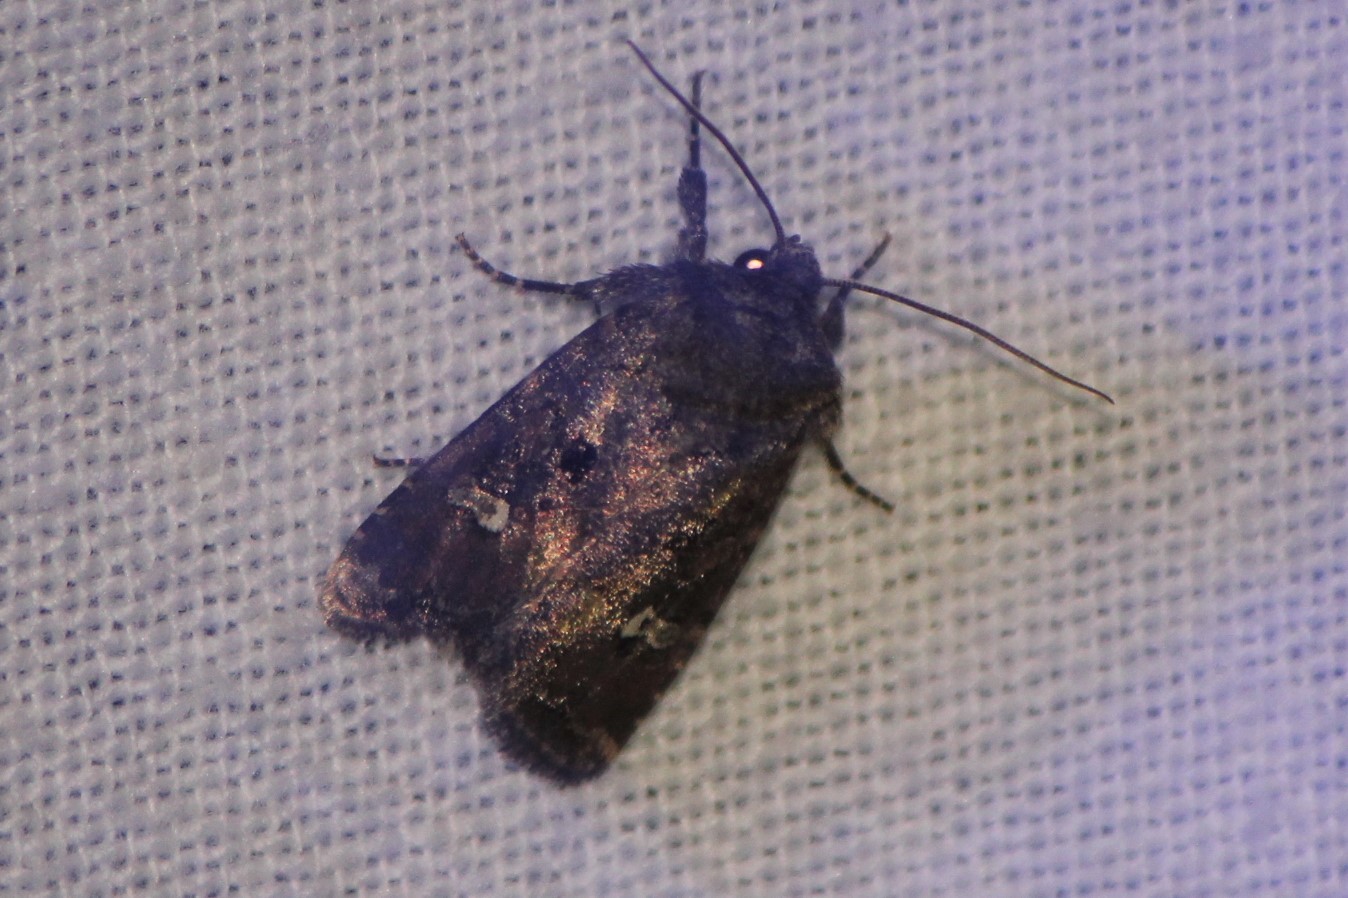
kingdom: Animalia
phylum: Arthropoda
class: Insecta
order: Lepidoptera
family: Noctuidae
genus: Lacinipolia
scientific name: Lacinipolia renigera
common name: Kidney-spotted minor
